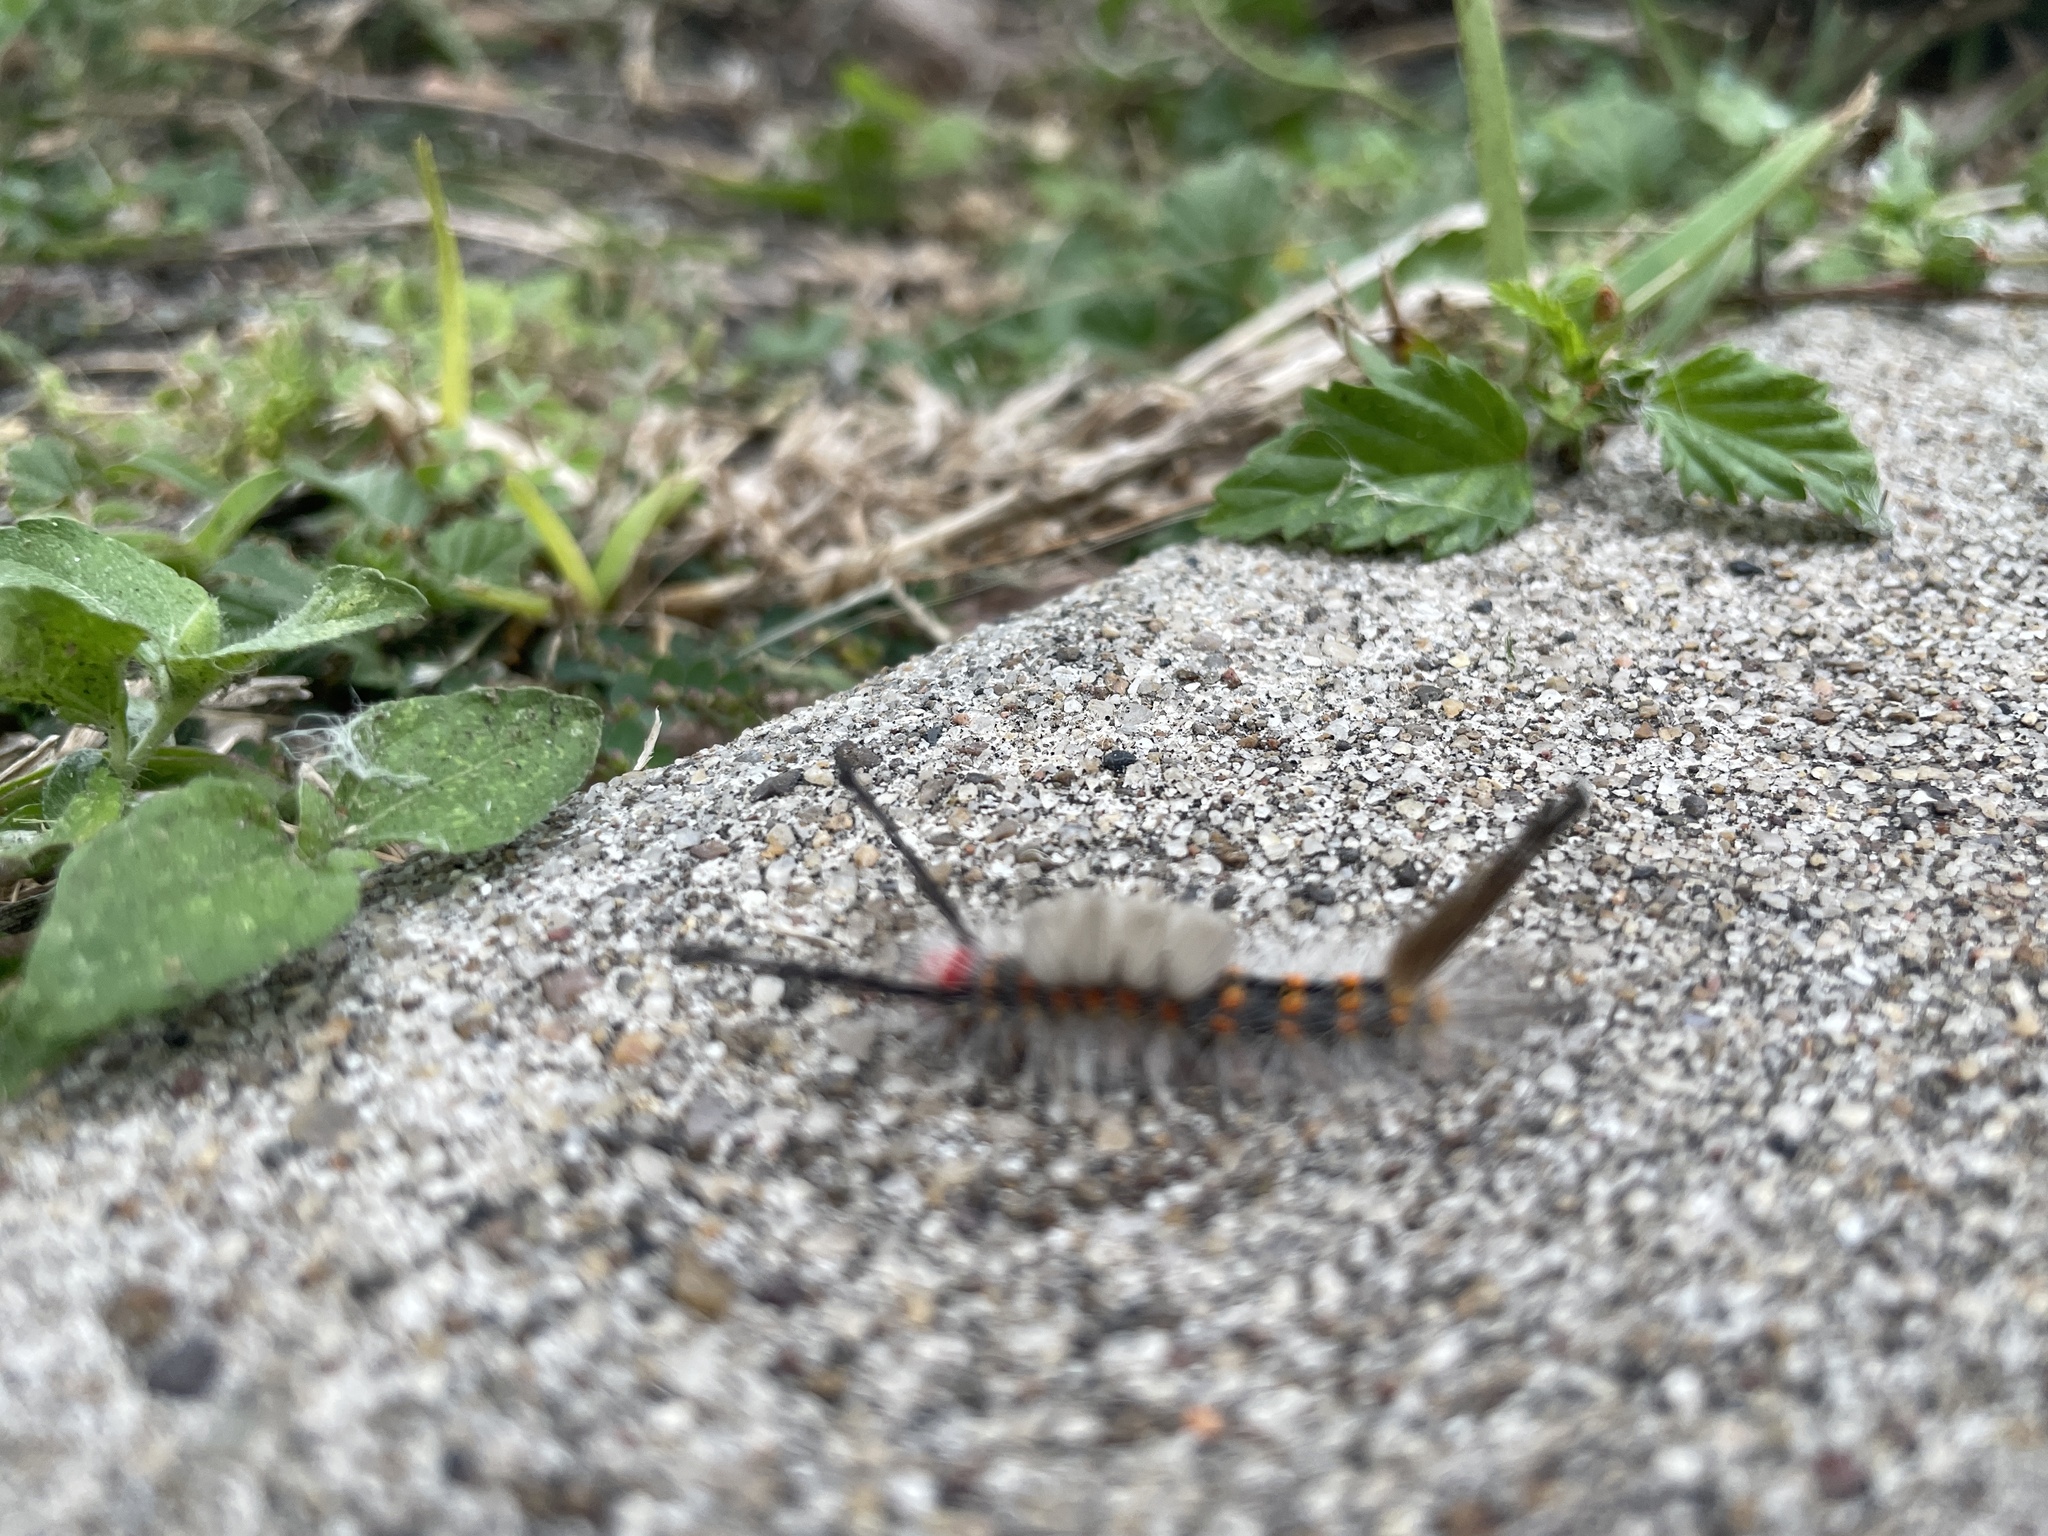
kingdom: Animalia
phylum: Arthropoda
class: Insecta
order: Lepidoptera
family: Erebidae
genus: Orgyia
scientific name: Orgyia detrita
